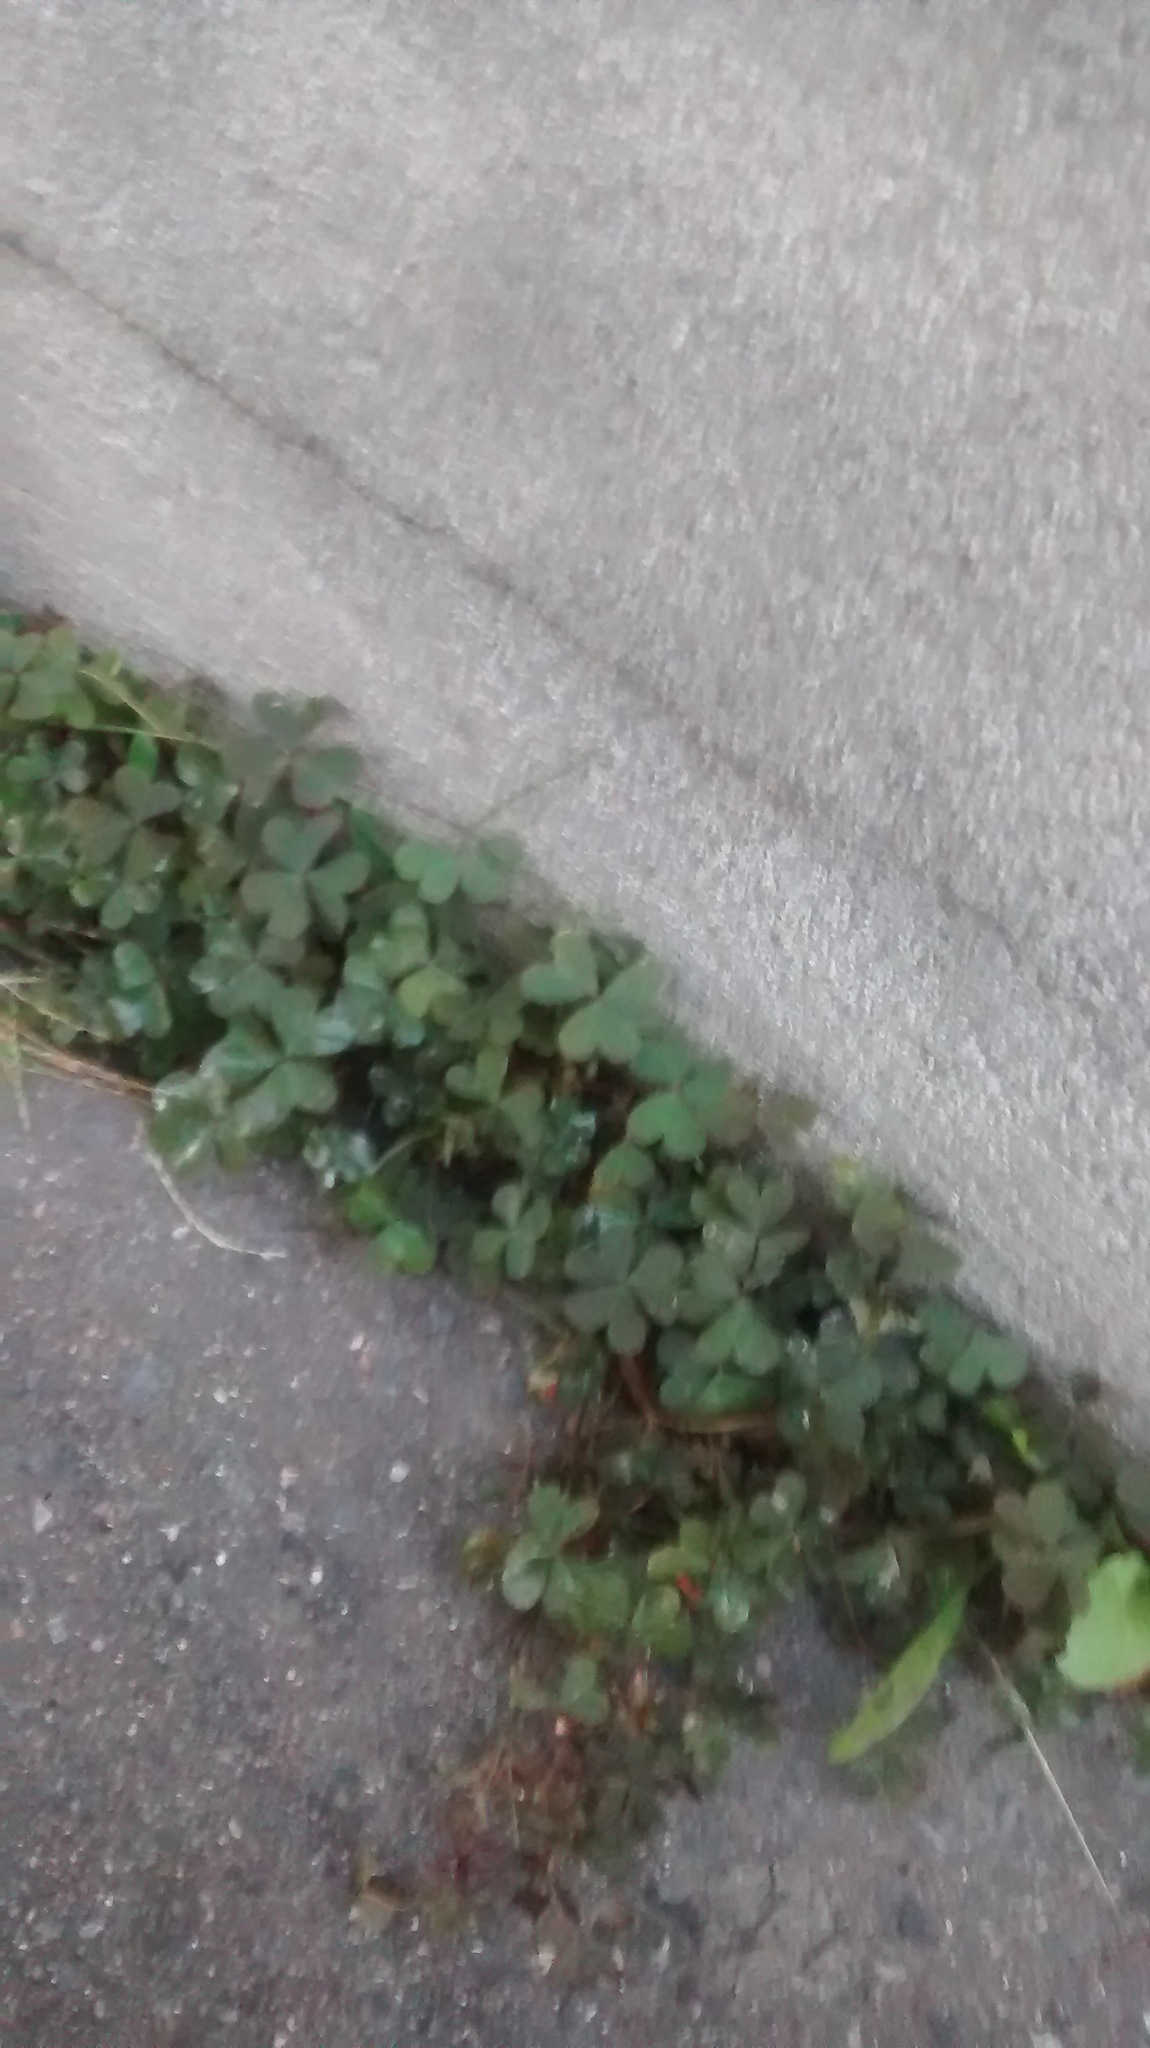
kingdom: Plantae
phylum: Tracheophyta
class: Magnoliopsida
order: Oxalidales
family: Oxalidaceae
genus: Oxalis
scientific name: Oxalis corniculata
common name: Procumbent yellow-sorrel
